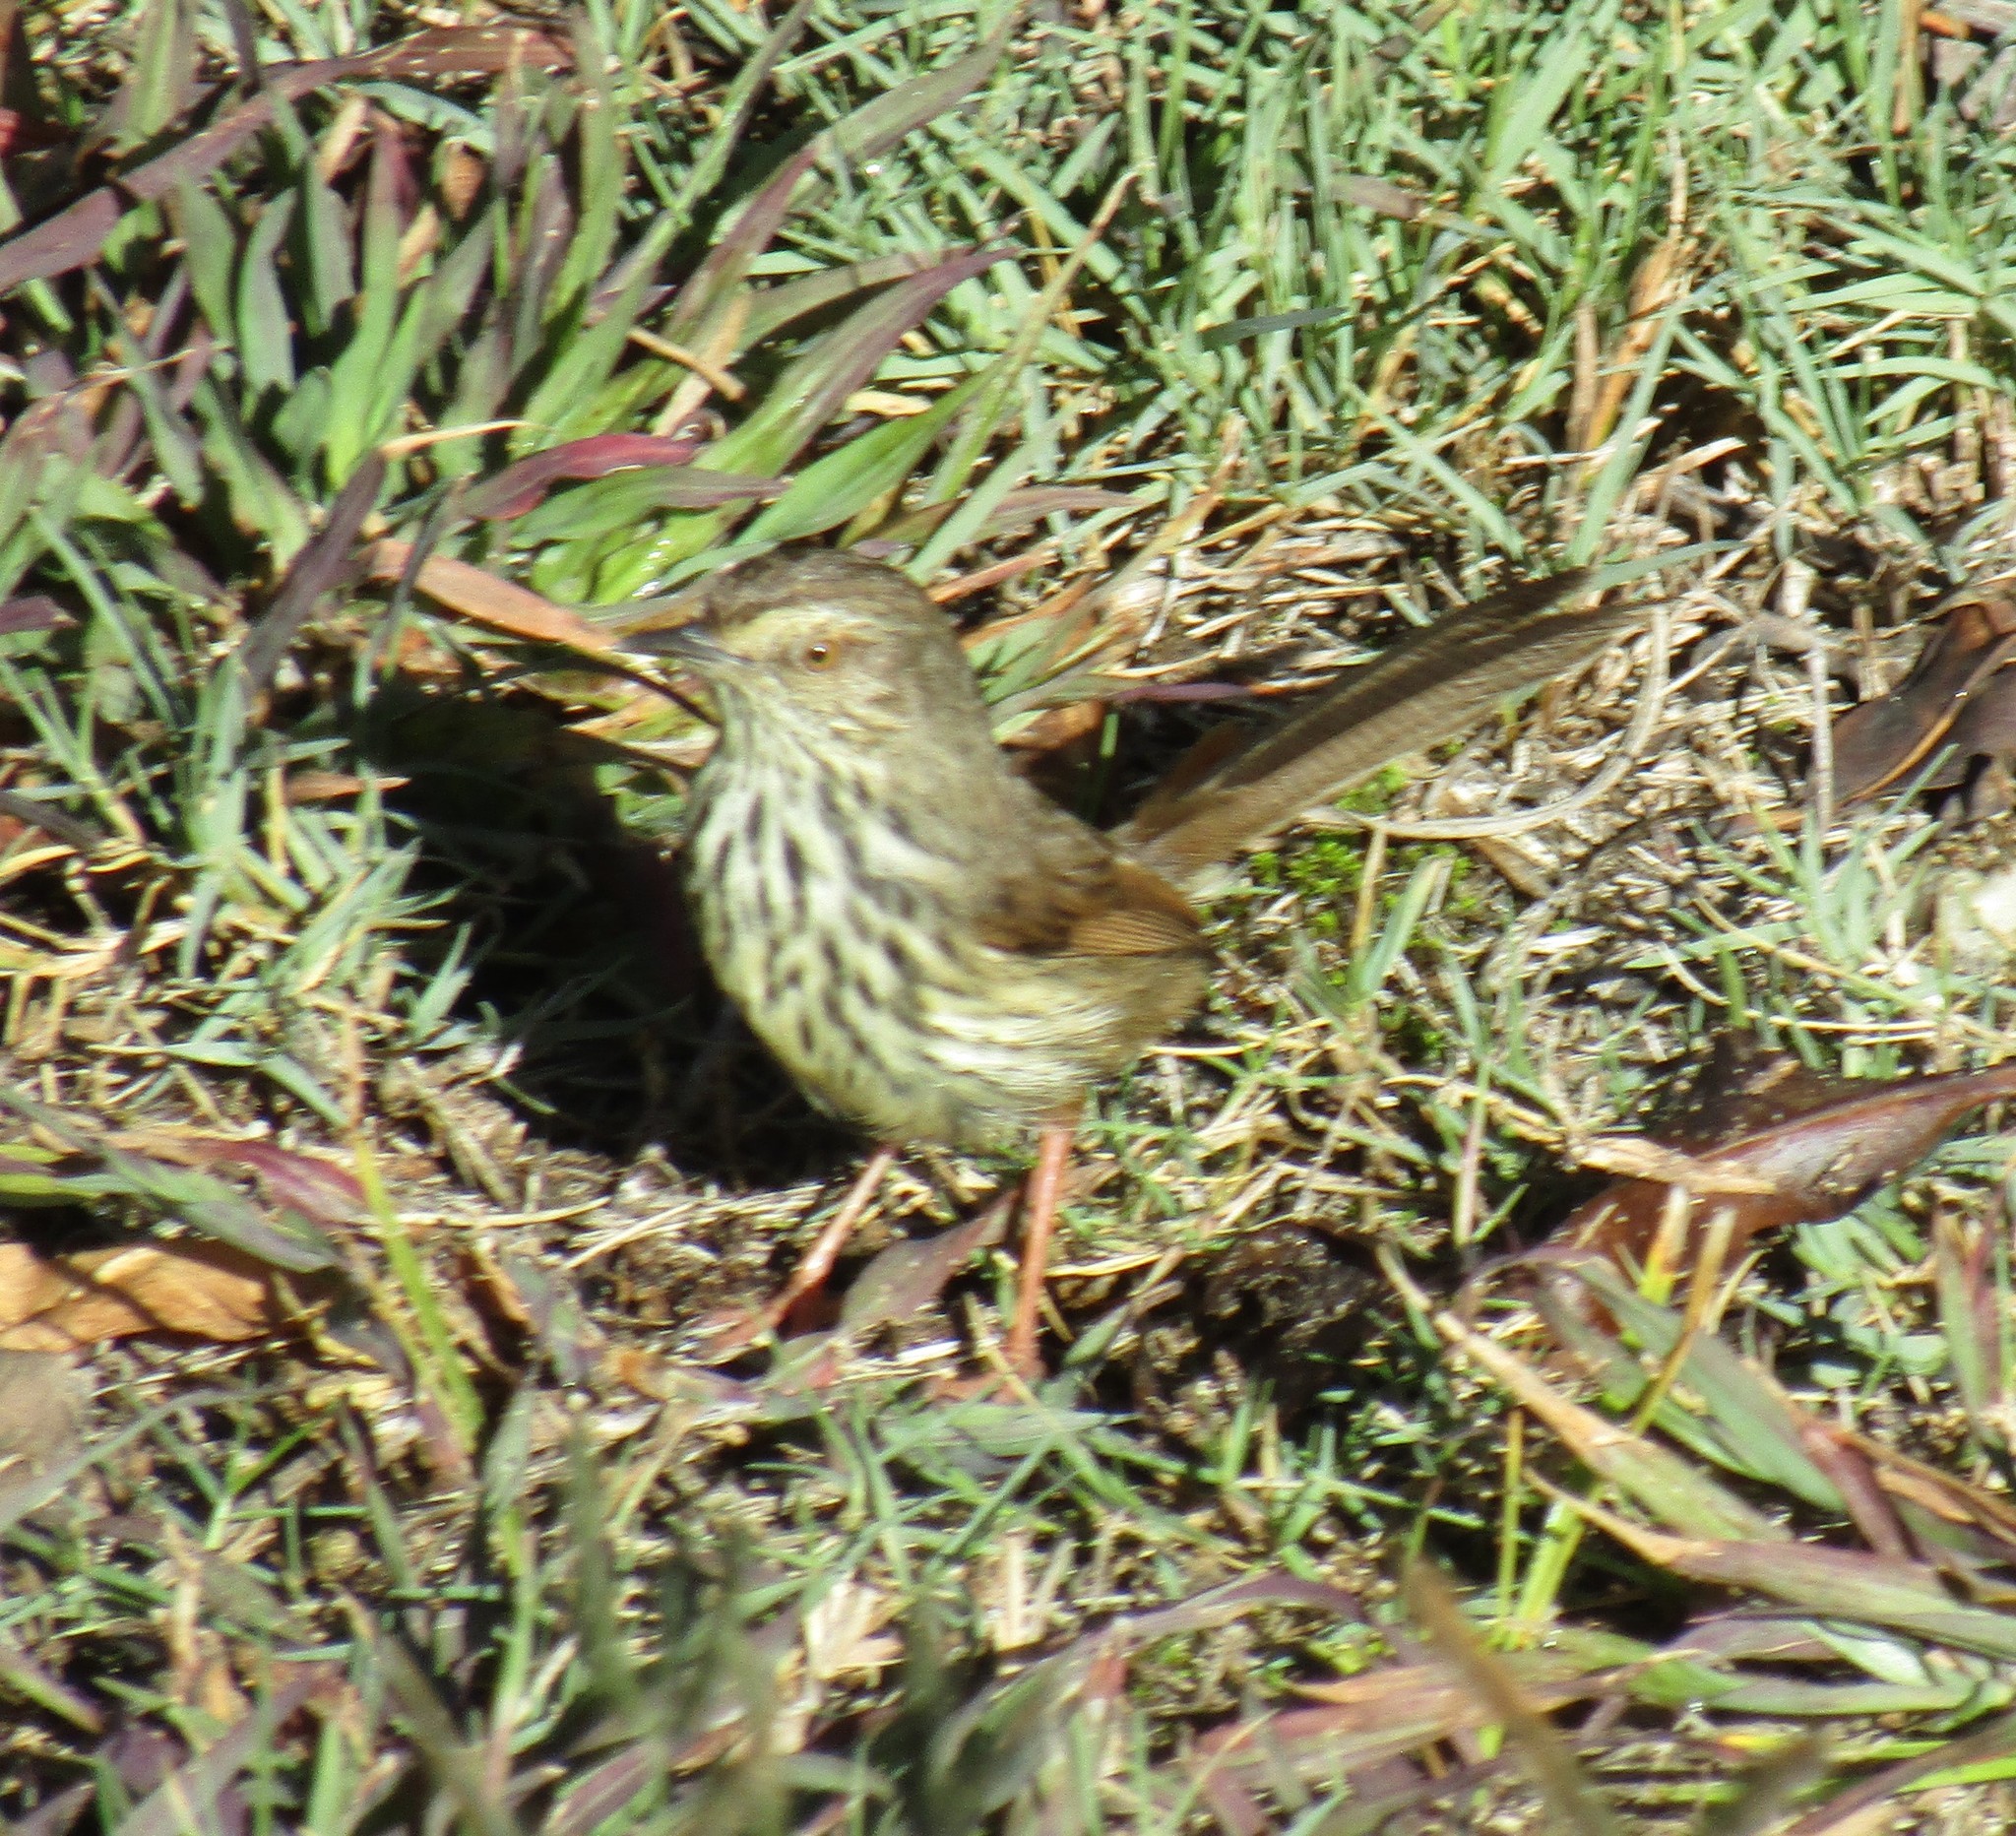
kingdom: Animalia
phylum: Chordata
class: Aves
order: Passeriformes
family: Cisticolidae
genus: Prinia
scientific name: Prinia maculosa
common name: Karoo prinia
